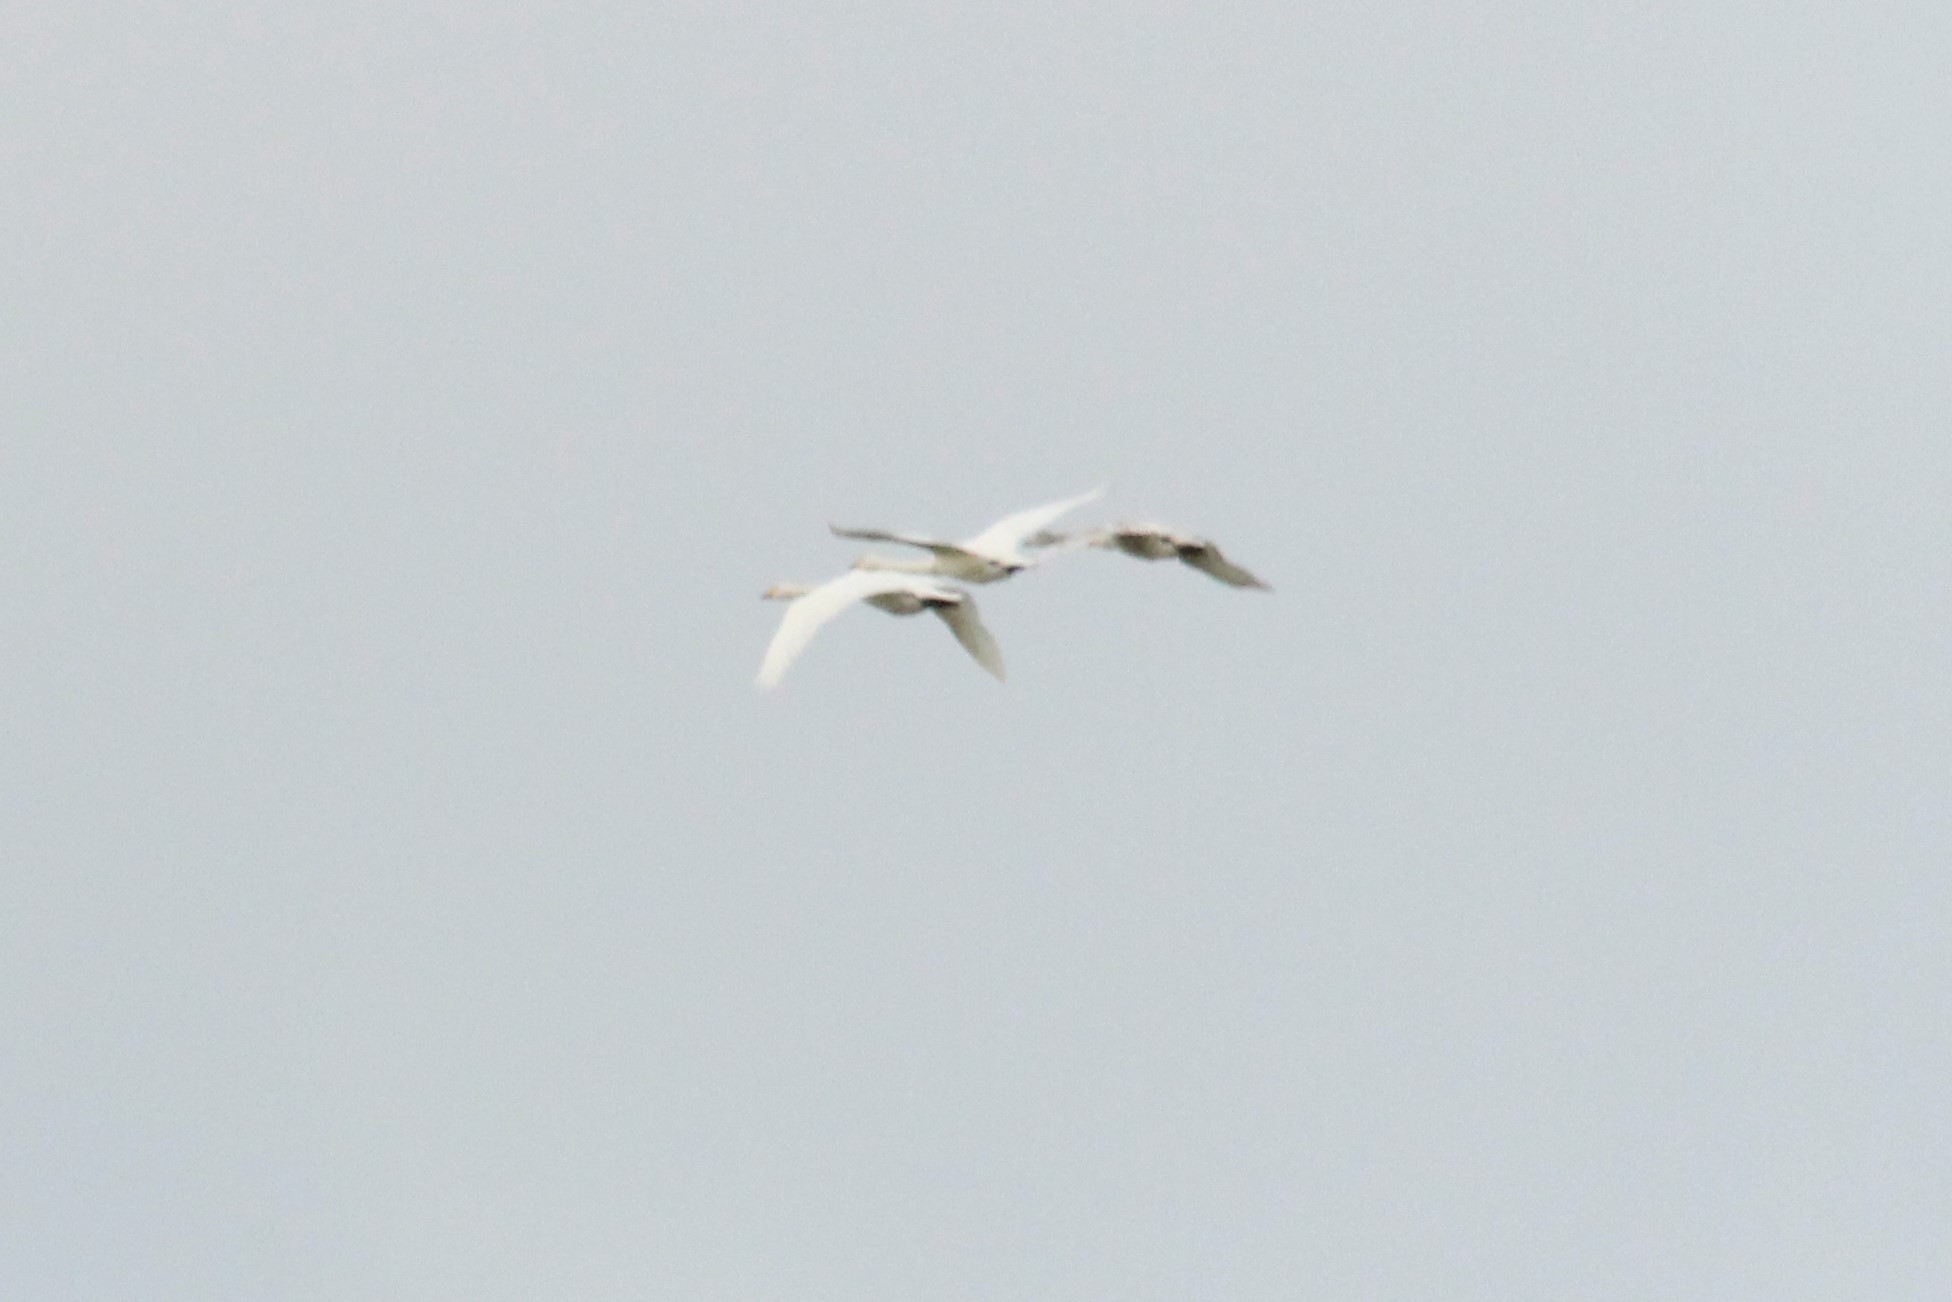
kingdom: Animalia
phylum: Chordata
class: Aves
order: Anseriformes
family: Anatidae
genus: Cygnus
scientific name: Cygnus cygnus
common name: Whooper swan
